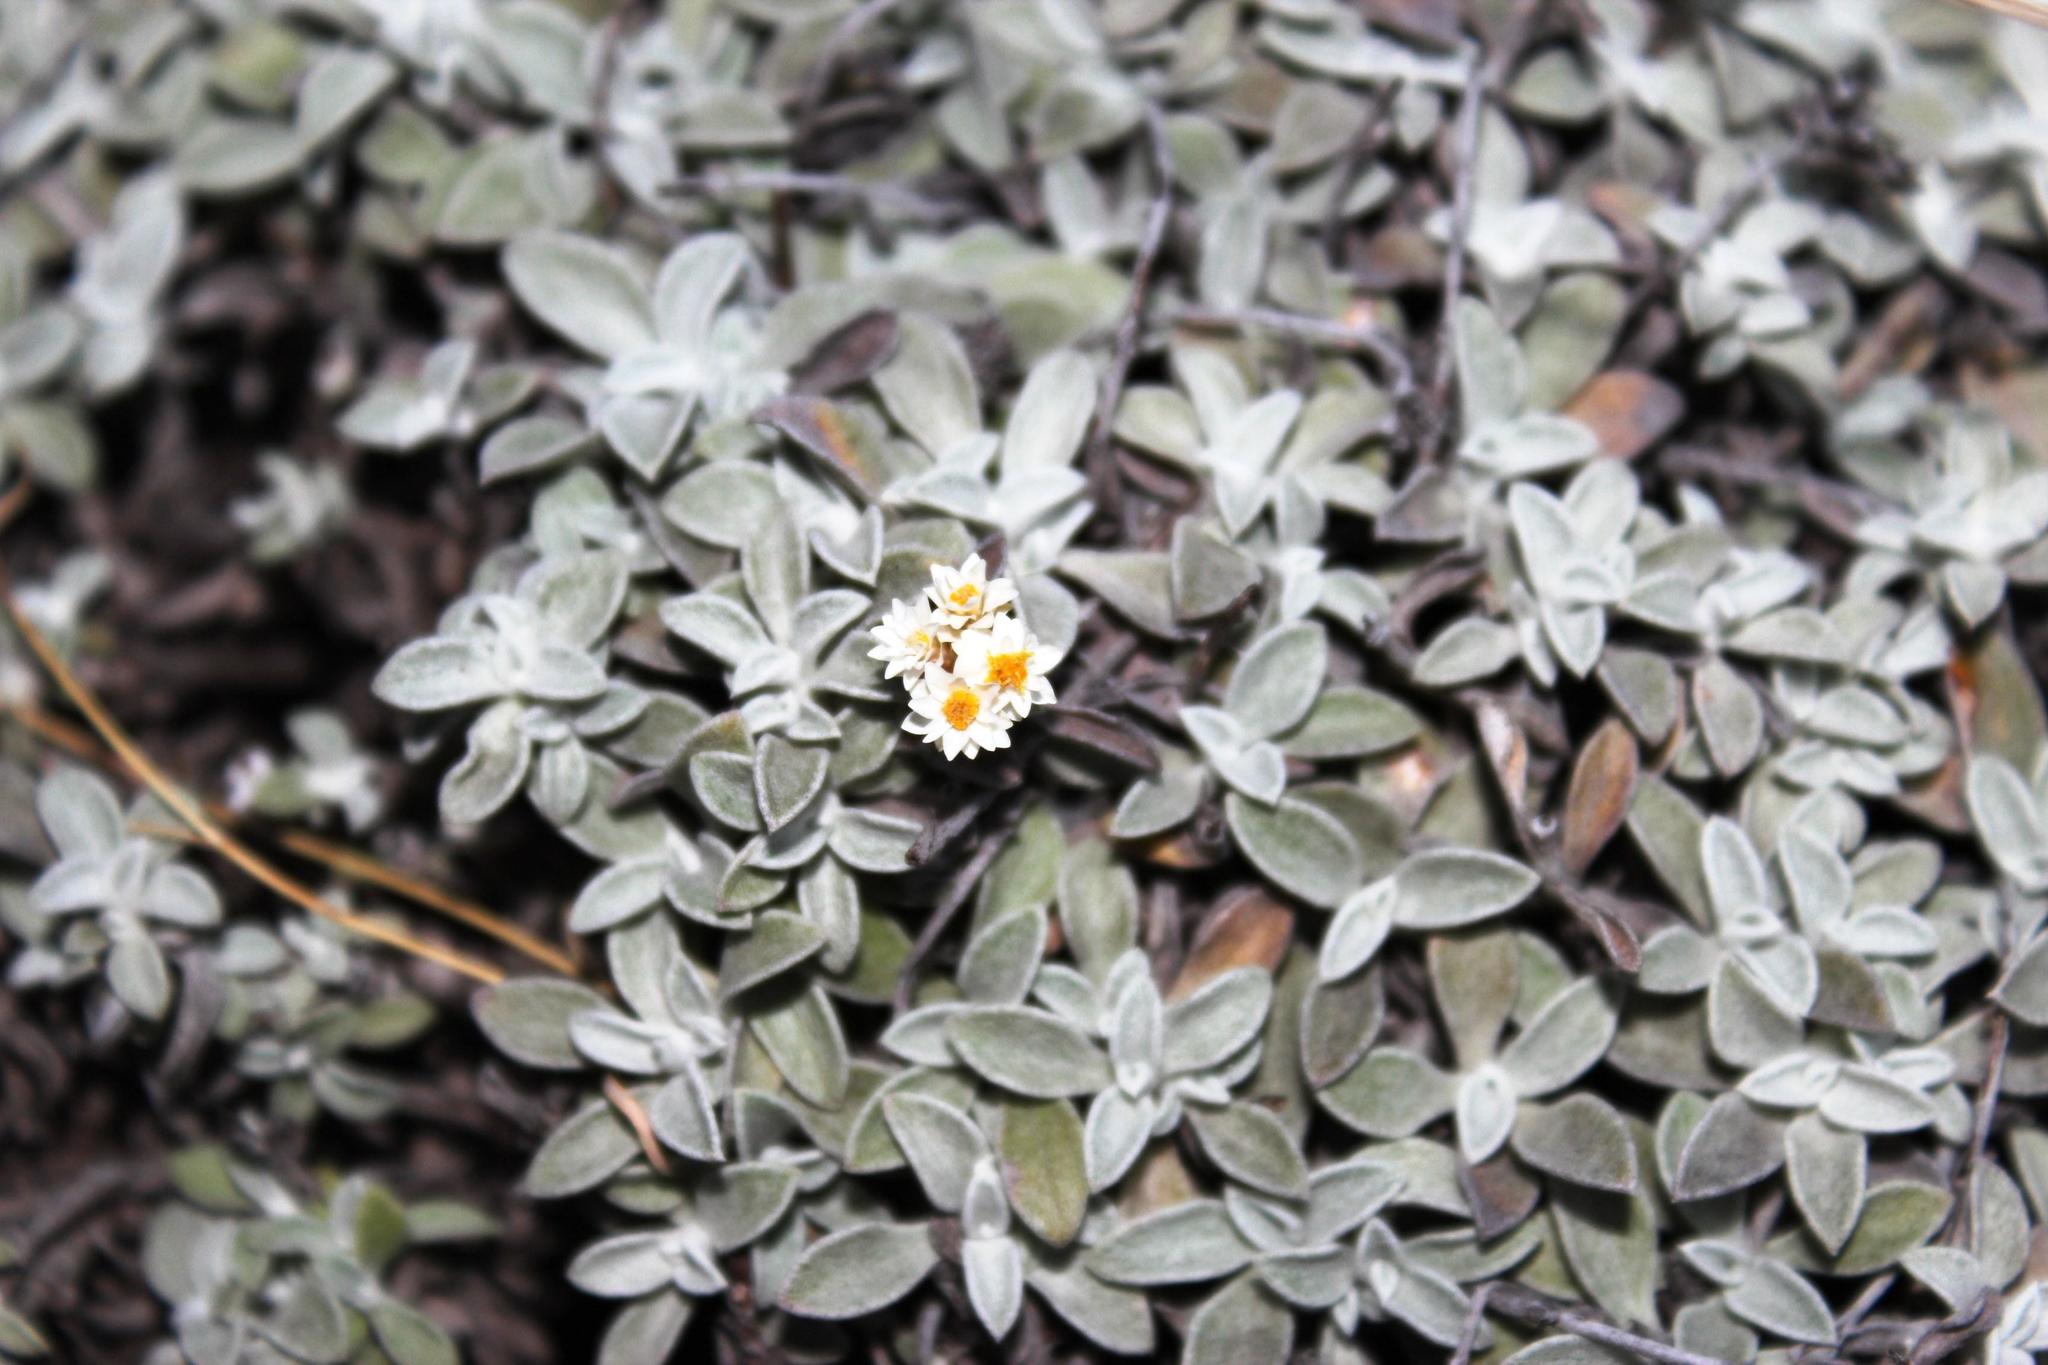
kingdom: Plantae
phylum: Tracheophyta
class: Magnoliopsida
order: Asterales
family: Asteraceae
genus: Helichrysum
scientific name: Helichrysum confertum
